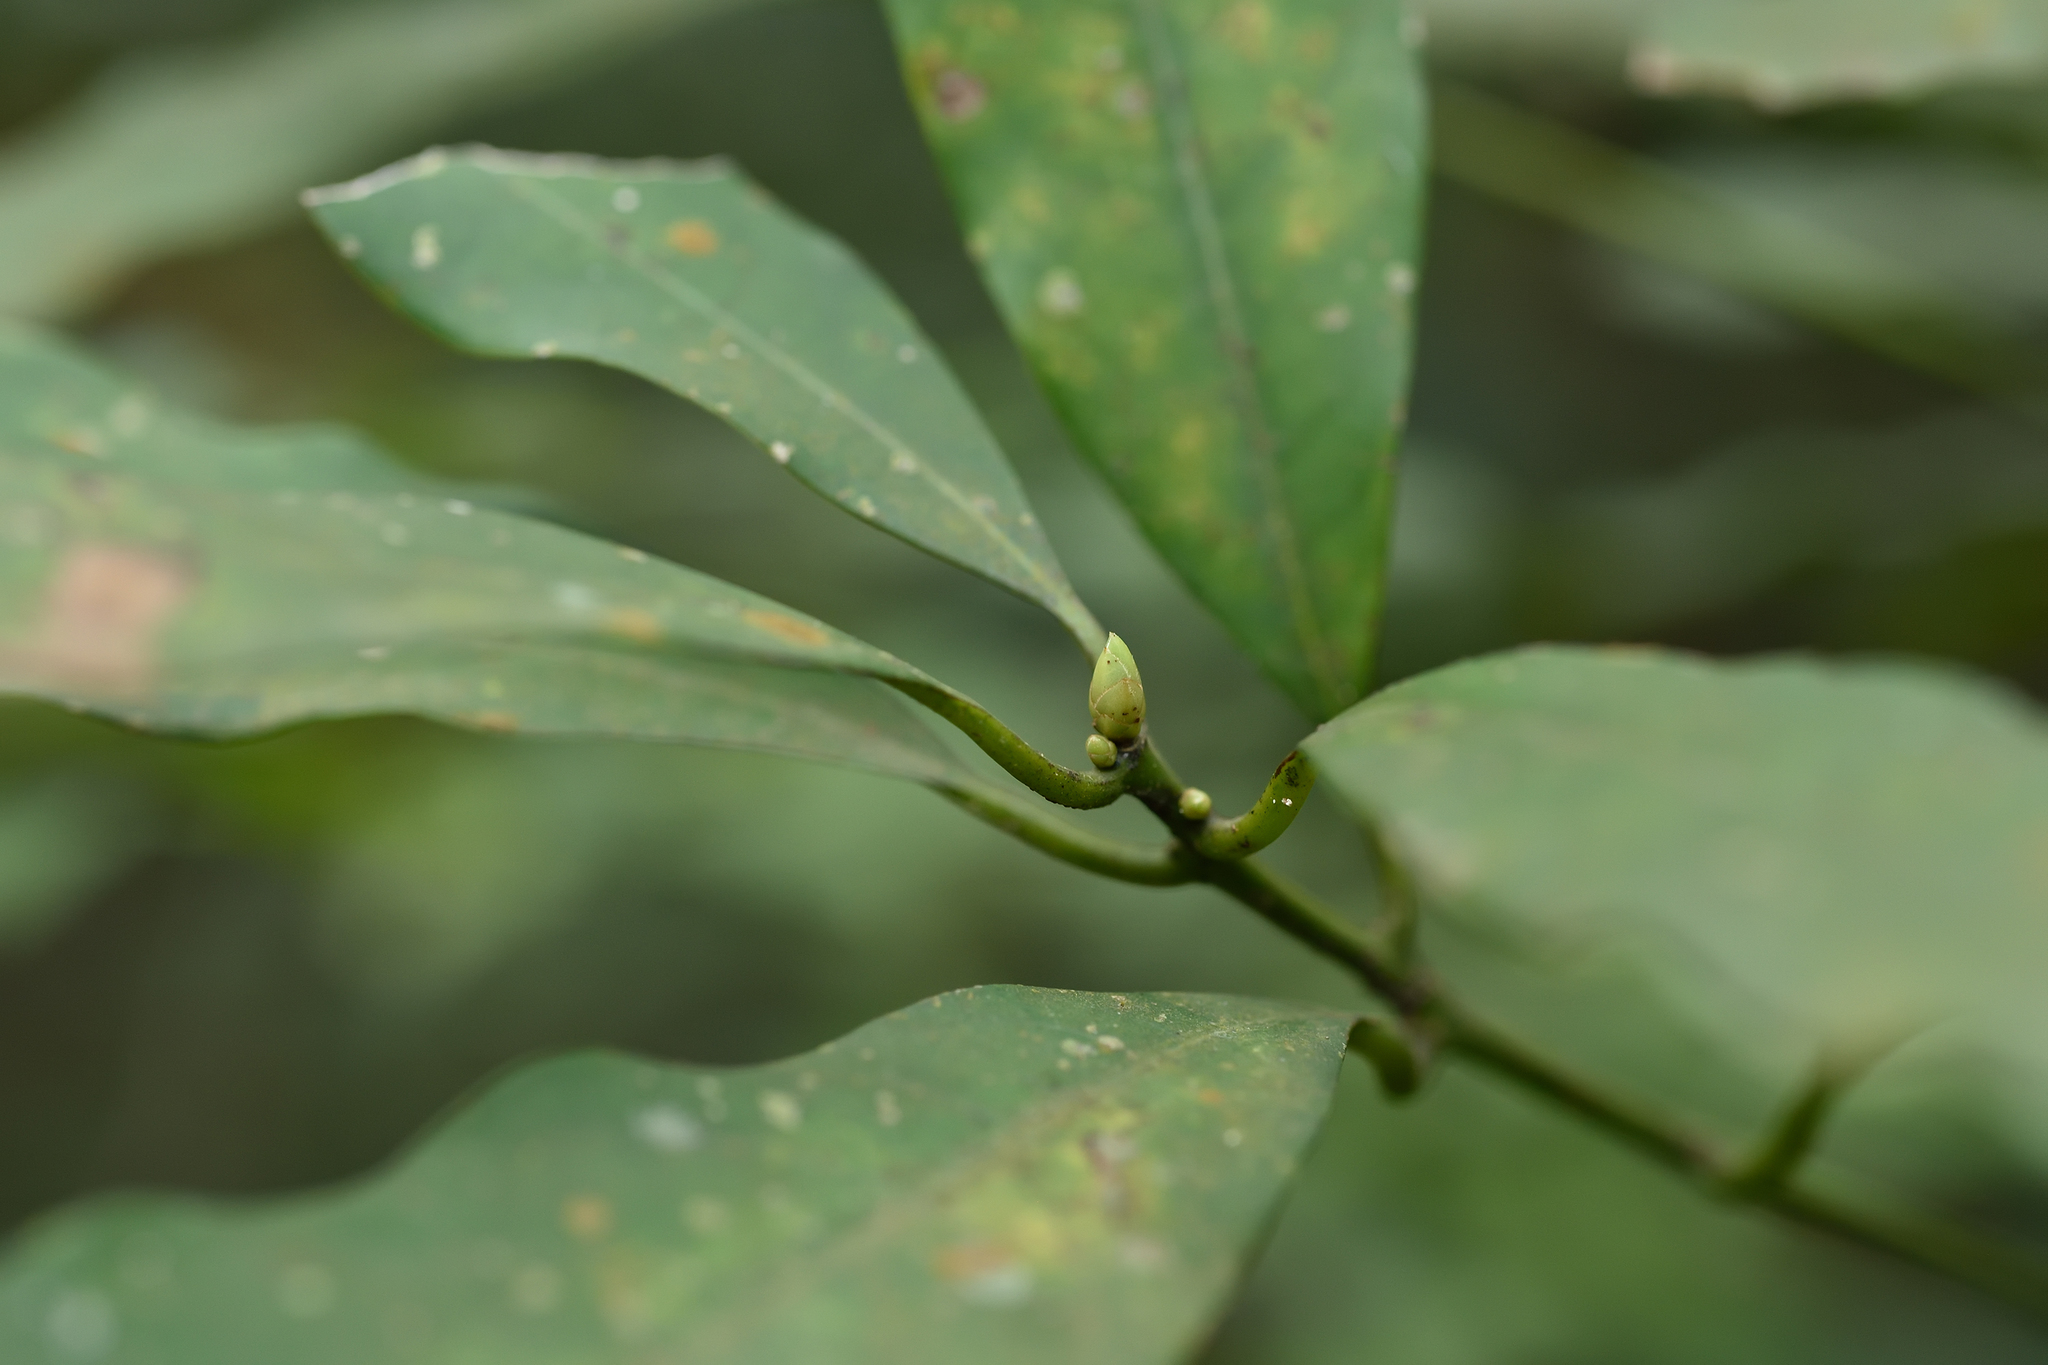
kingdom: Plantae
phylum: Tracheophyta
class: Magnoliopsida
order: Laurales
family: Lauraceae
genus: Machilus
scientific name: Machilus zuihoensis
